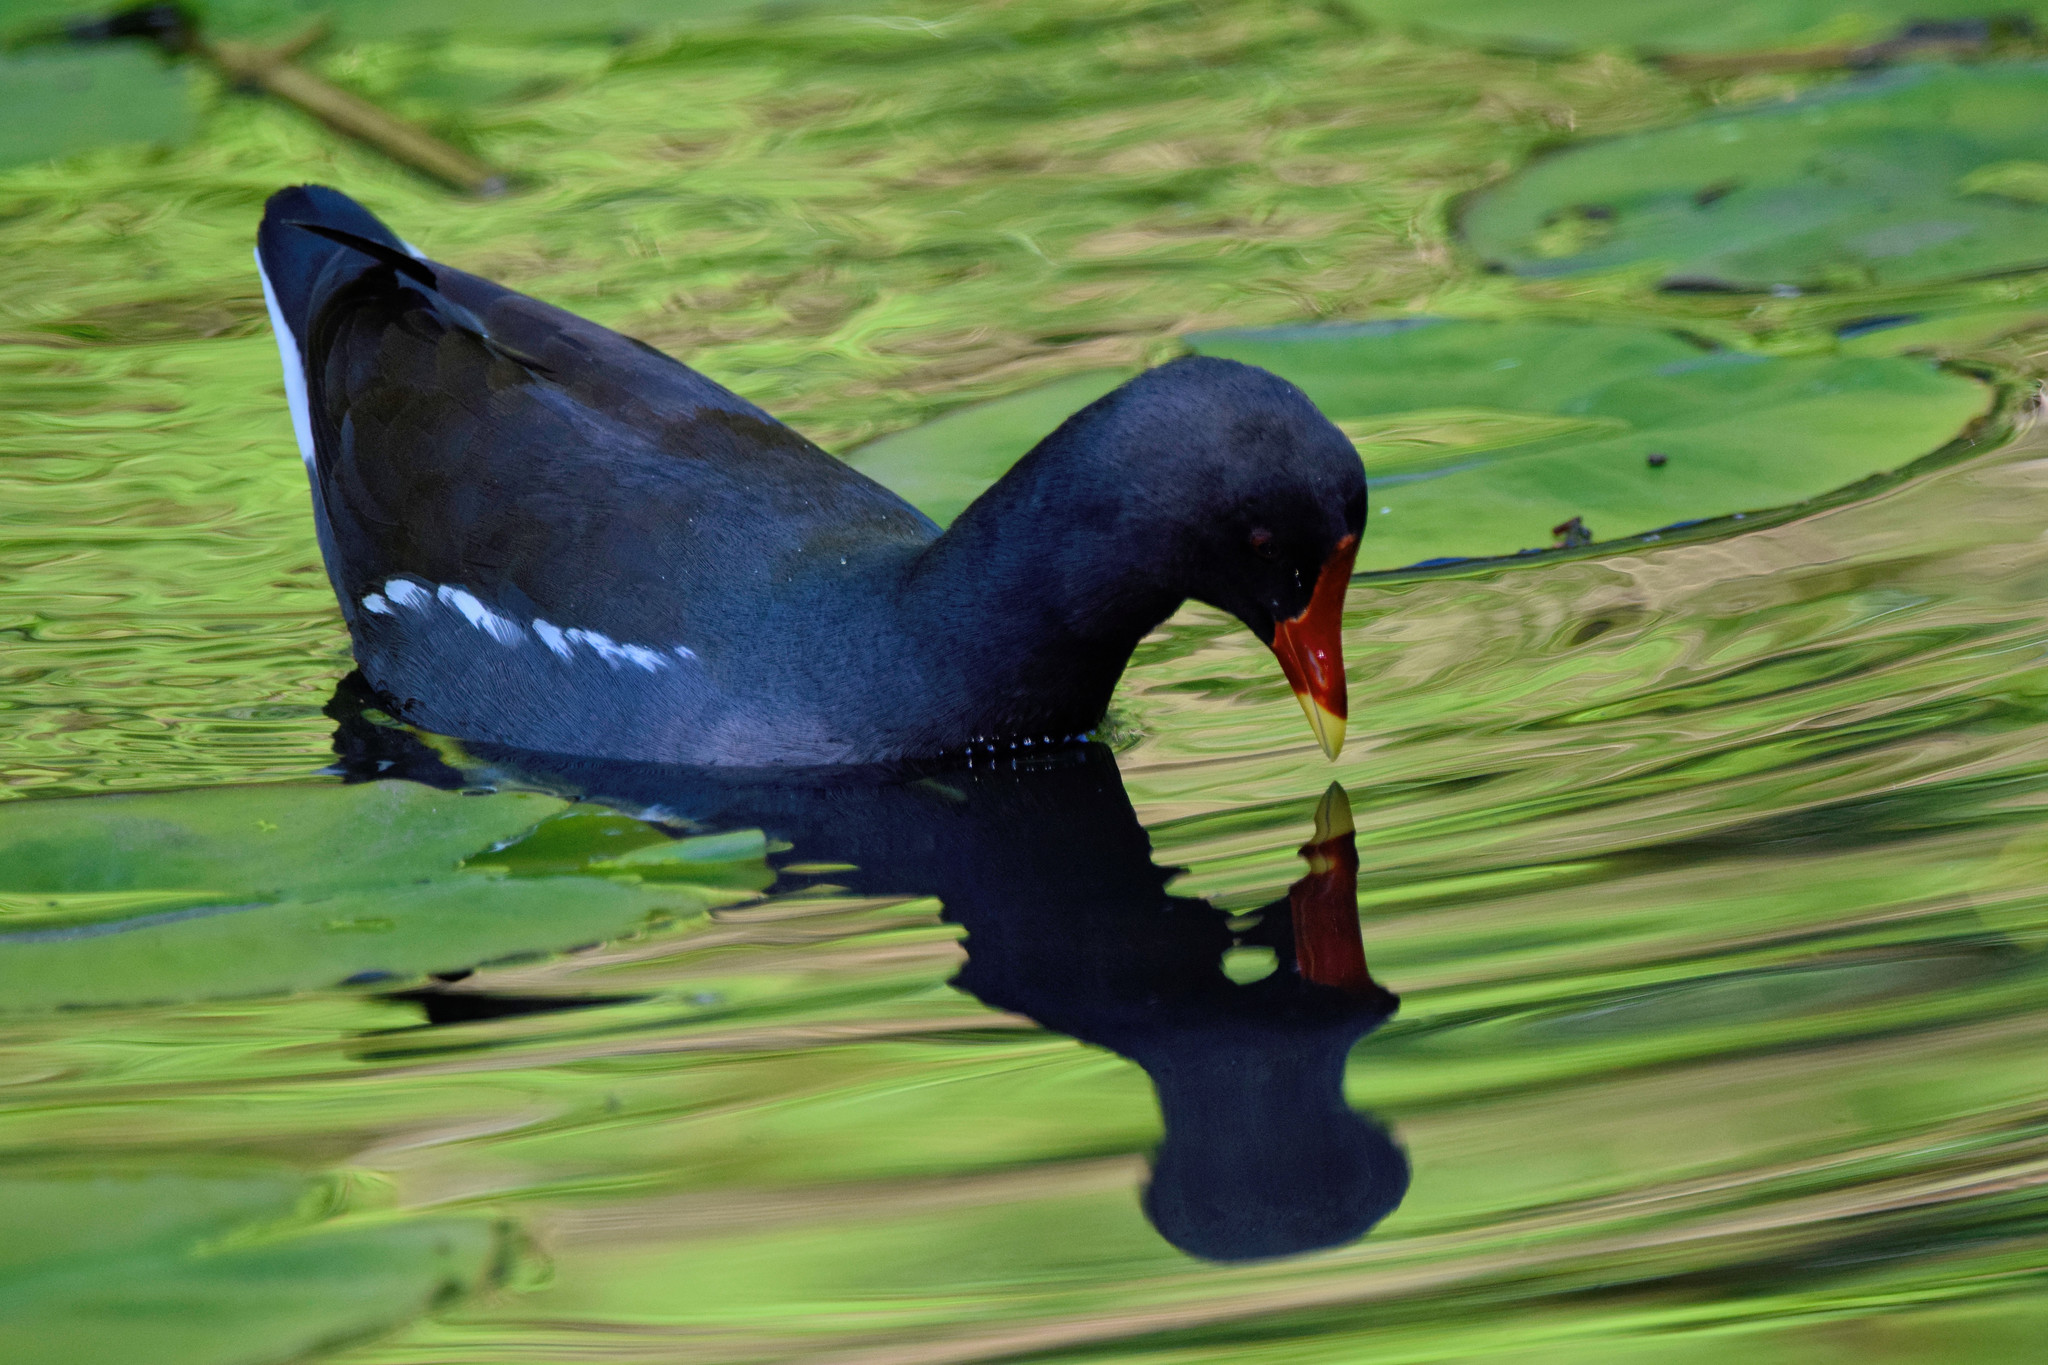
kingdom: Animalia
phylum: Chordata
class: Aves
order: Gruiformes
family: Rallidae
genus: Gallinula
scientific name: Gallinula chloropus
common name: Common moorhen
